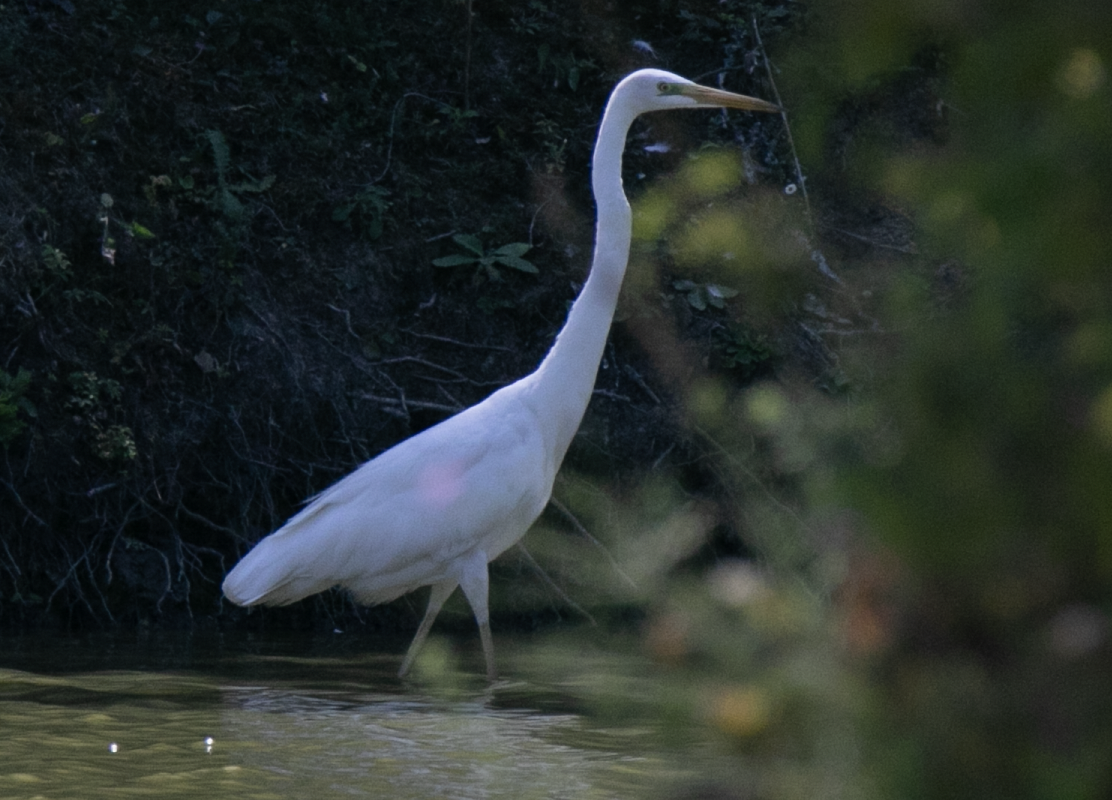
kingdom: Animalia
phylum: Chordata
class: Aves
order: Pelecaniformes
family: Ardeidae
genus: Ardea
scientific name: Ardea alba
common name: Great egret
